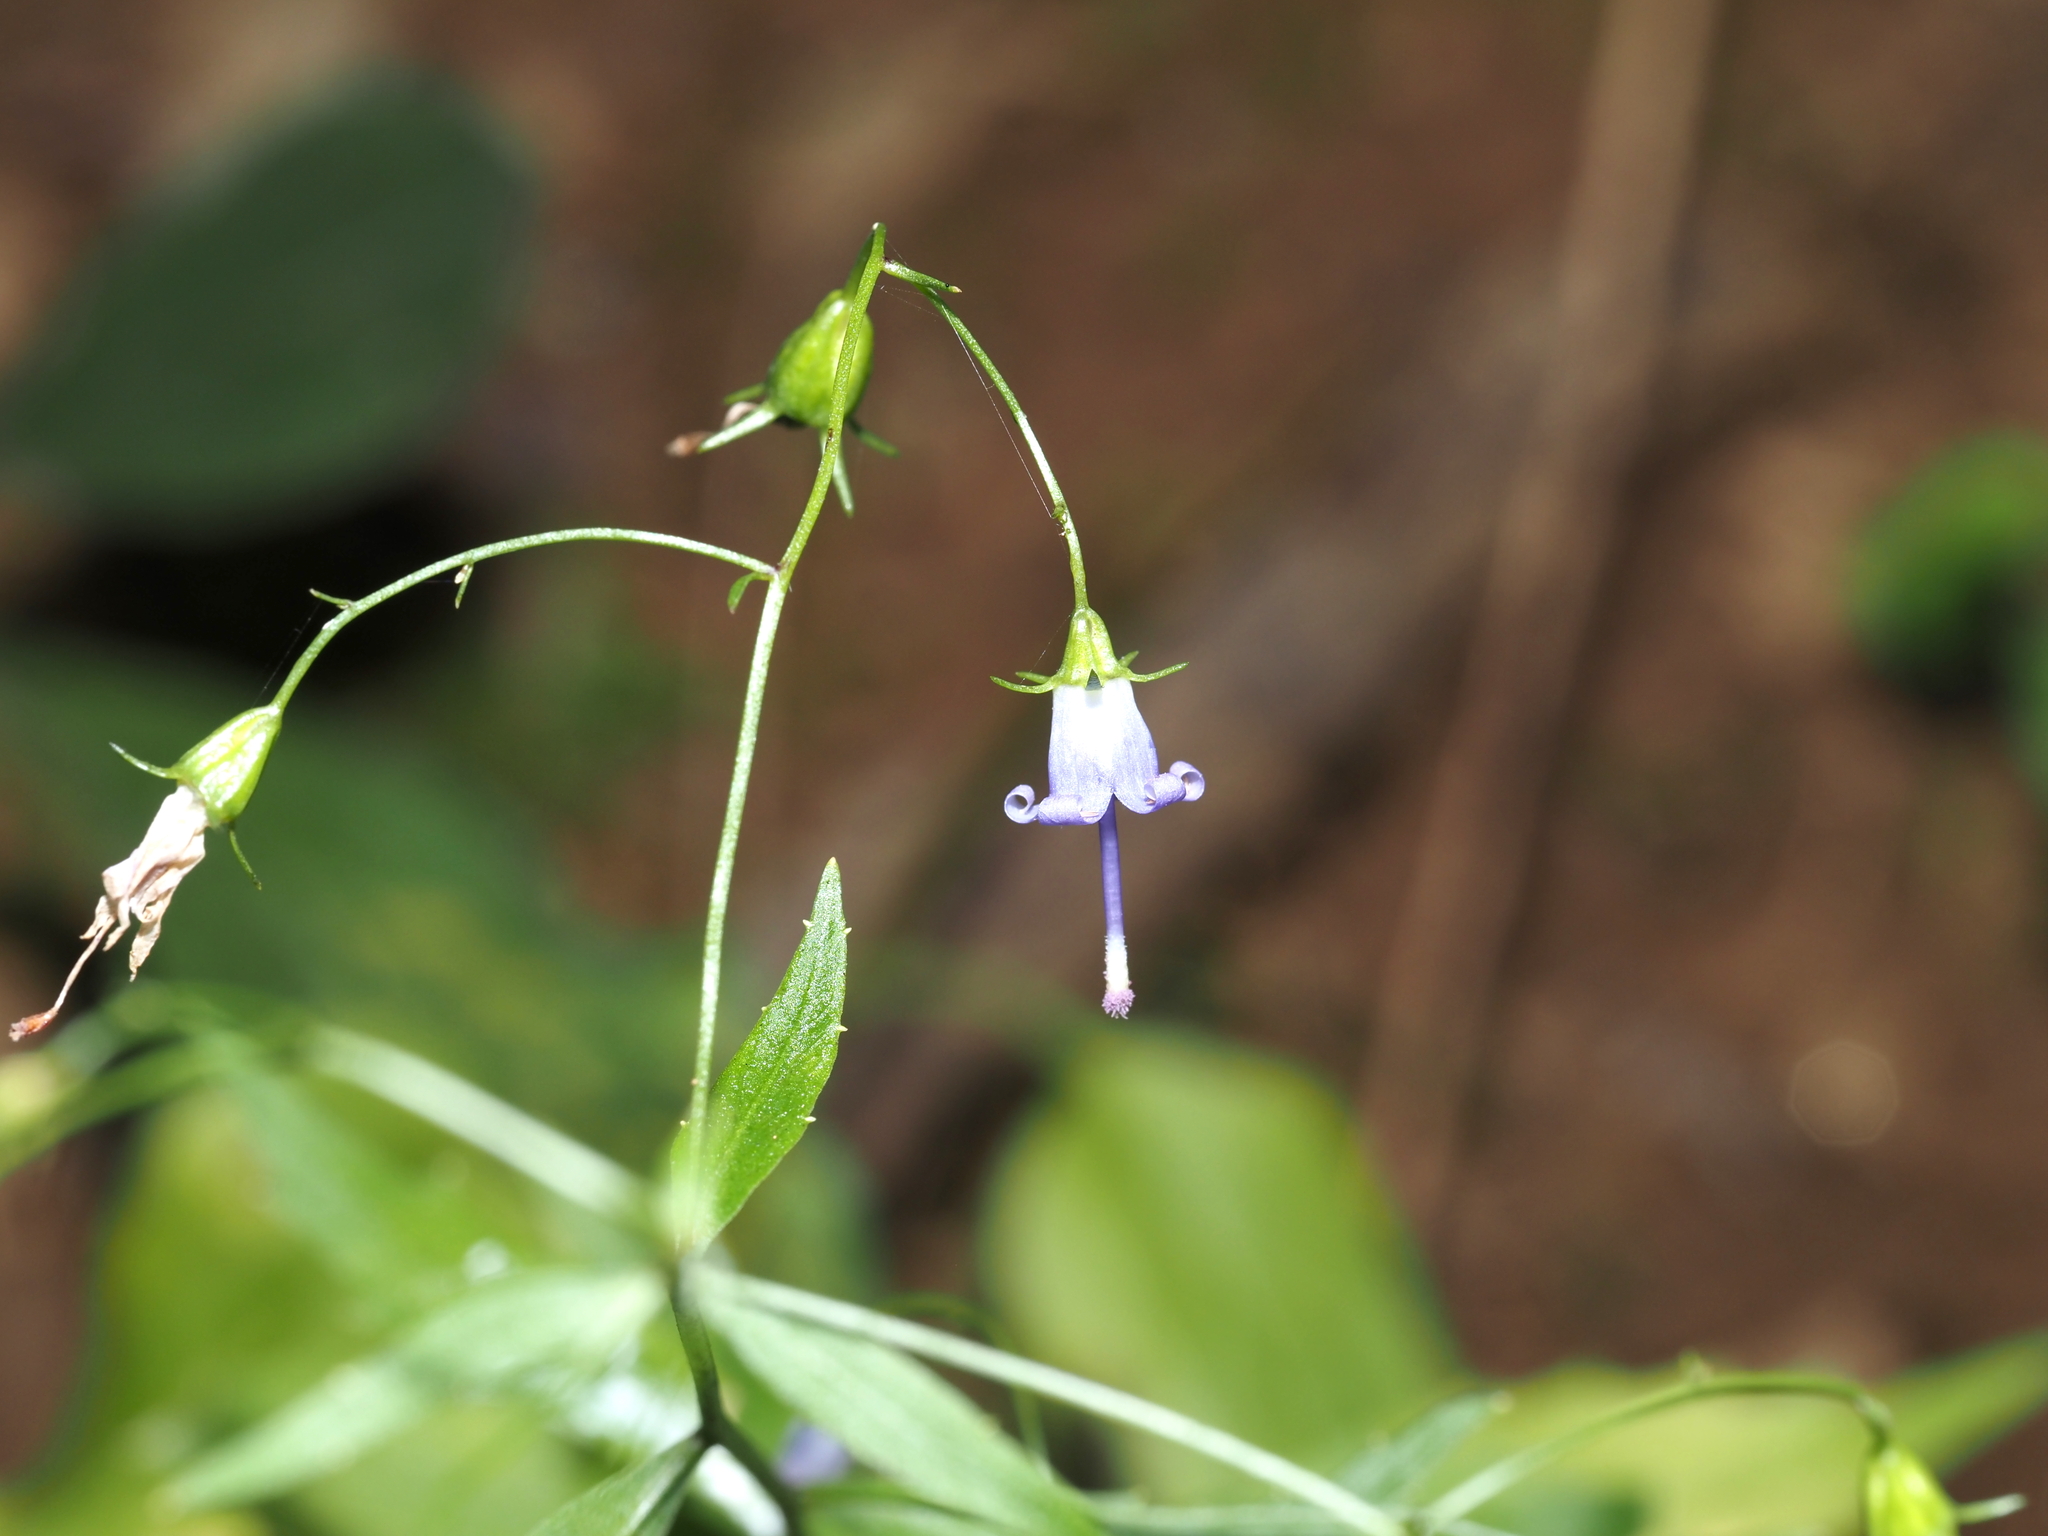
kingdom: Plantae
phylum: Tracheophyta
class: Magnoliopsida
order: Asterales
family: Campanulaceae
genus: Campanula
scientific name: Campanula divaricata
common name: Appalachian bellflower
